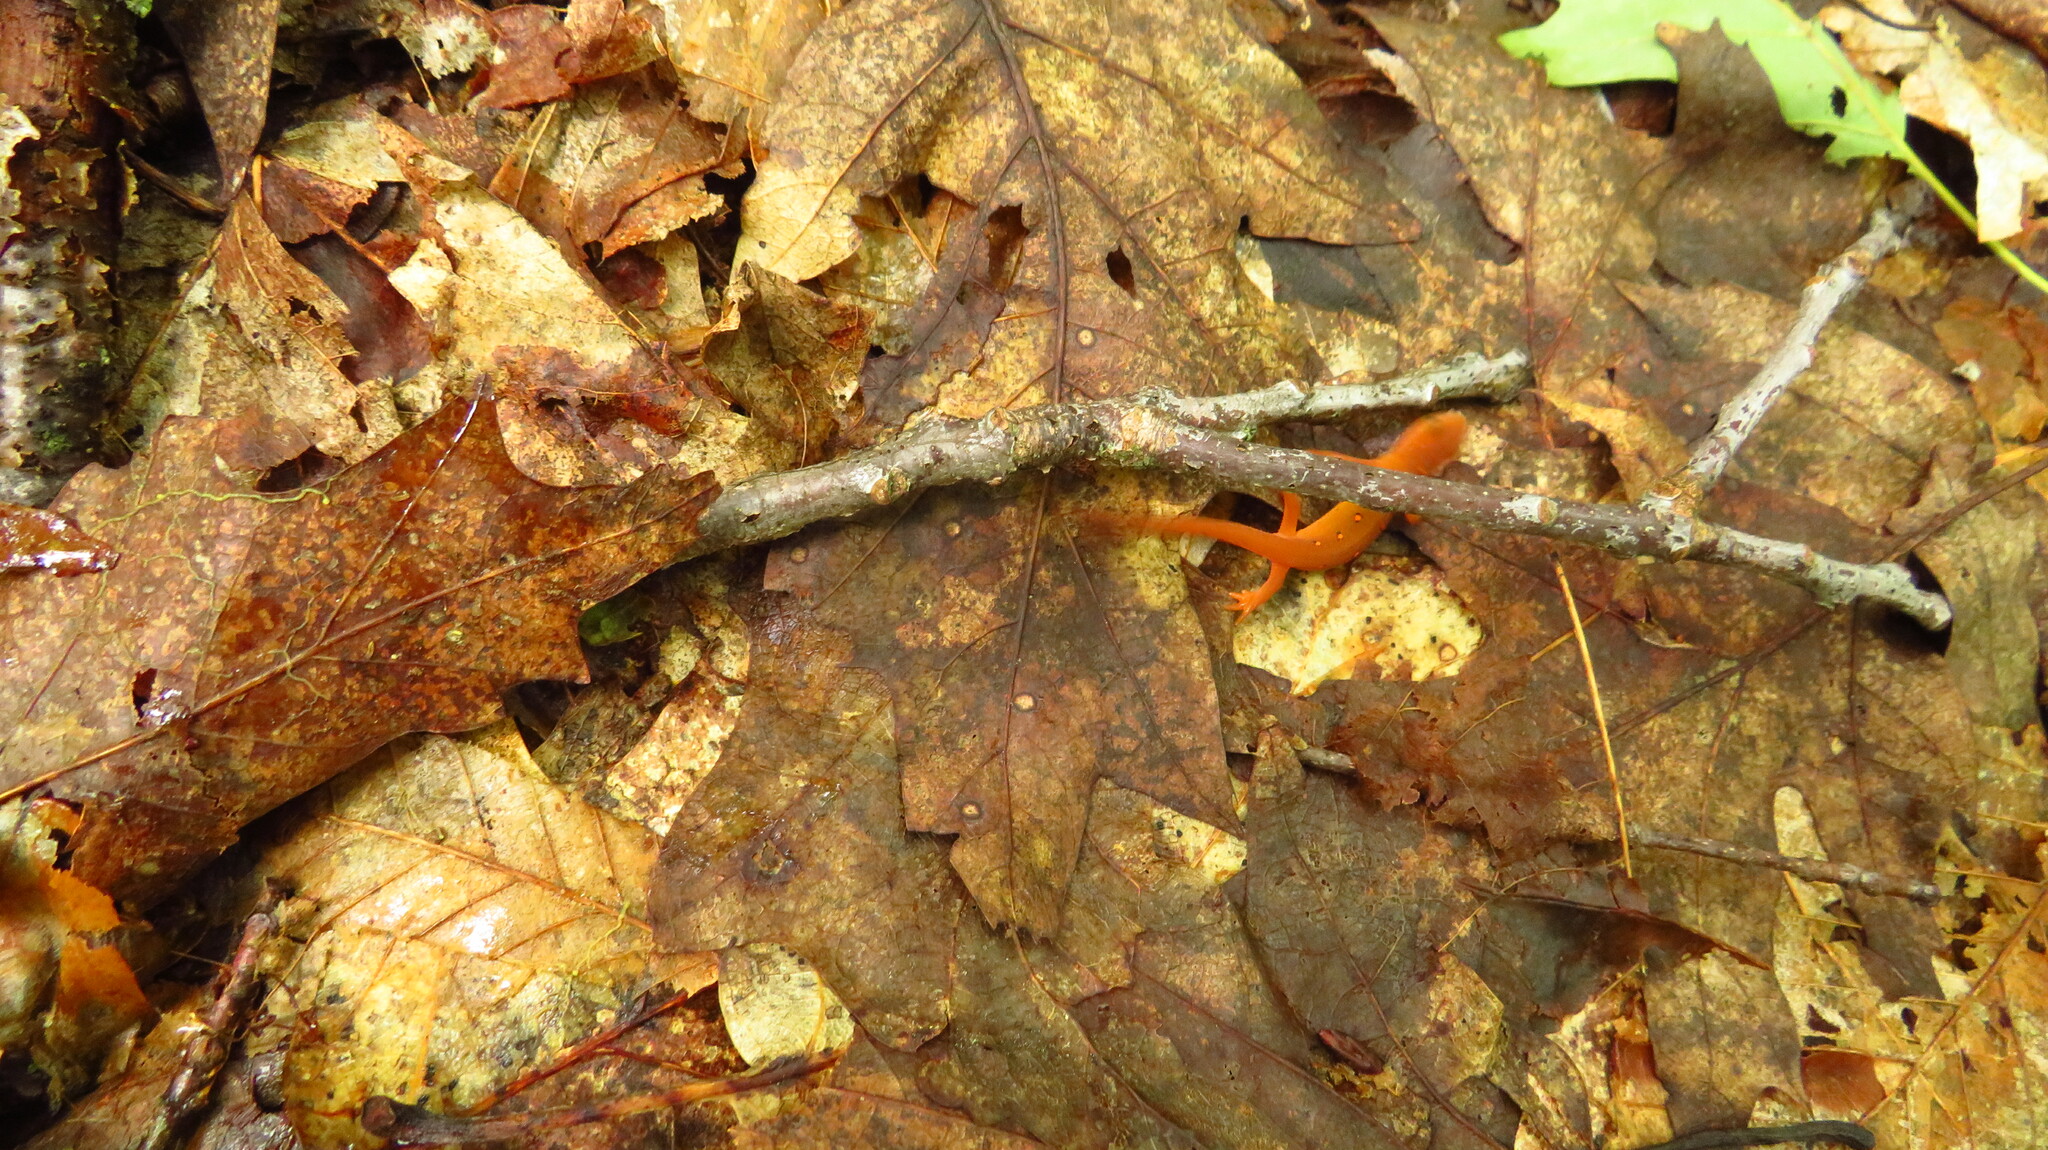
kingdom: Animalia
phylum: Chordata
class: Amphibia
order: Caudata
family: Salamandridae
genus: Notophthalmus
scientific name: Notophthalmus viridescens
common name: Eastern newt
